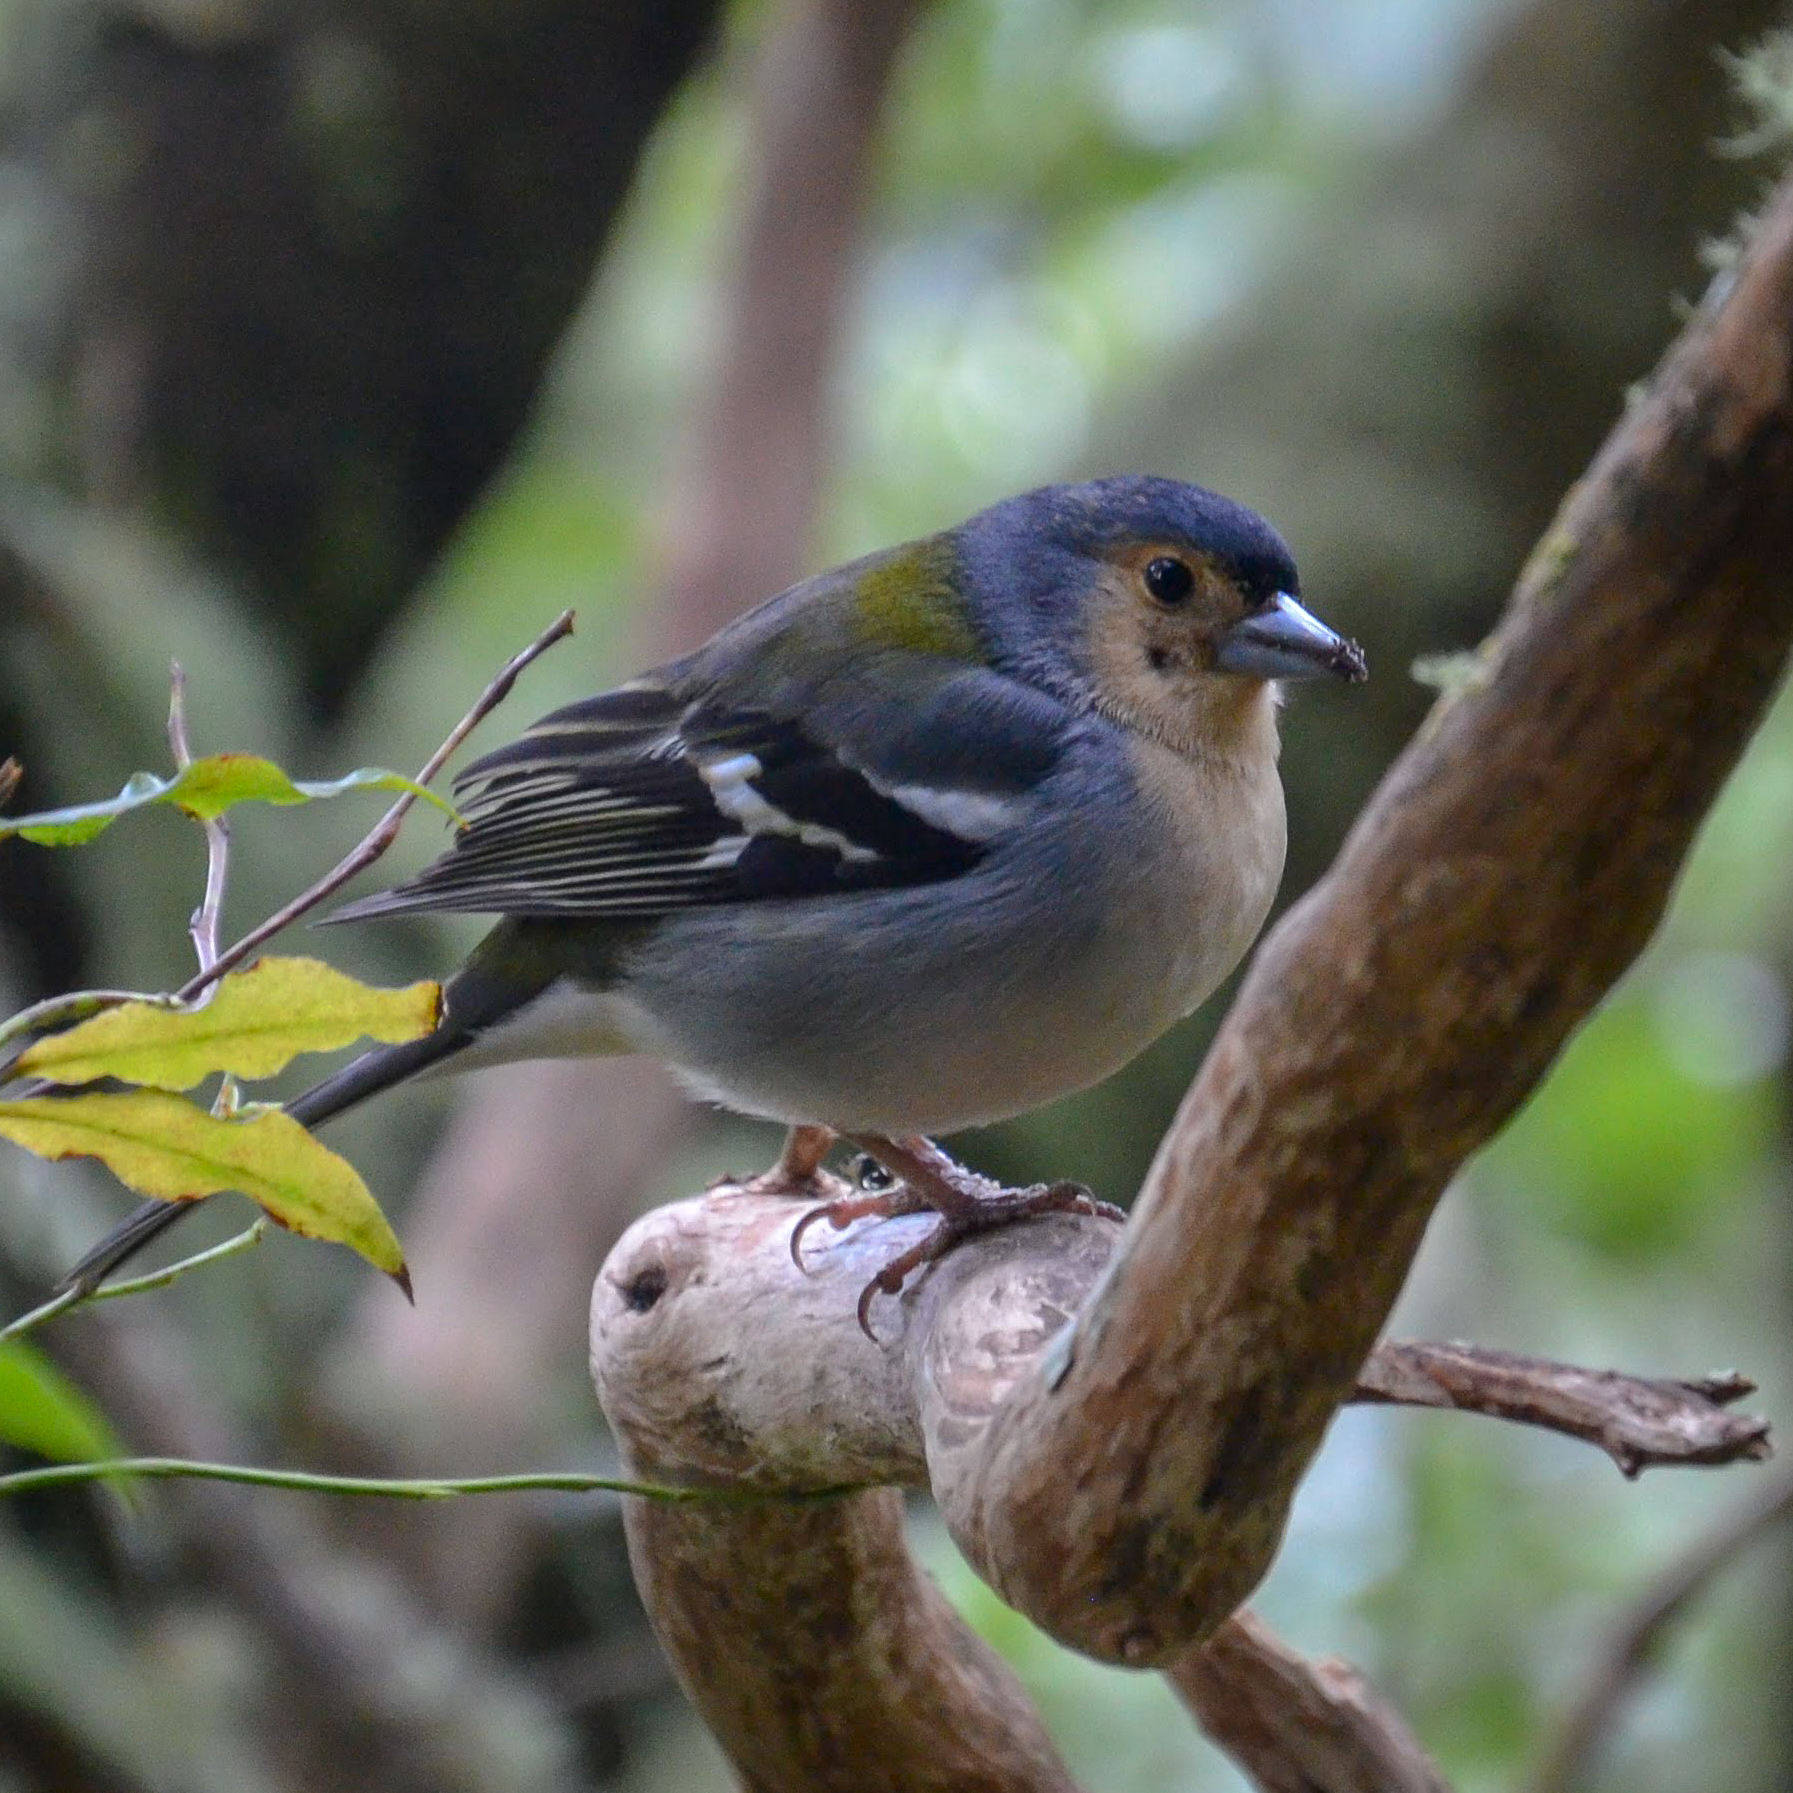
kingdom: Animalia
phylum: Chordata
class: Aves
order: Passeriformes
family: Fringillidae
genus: Fringilla
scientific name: Fringilla maderensis
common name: Madeira chaffinch
